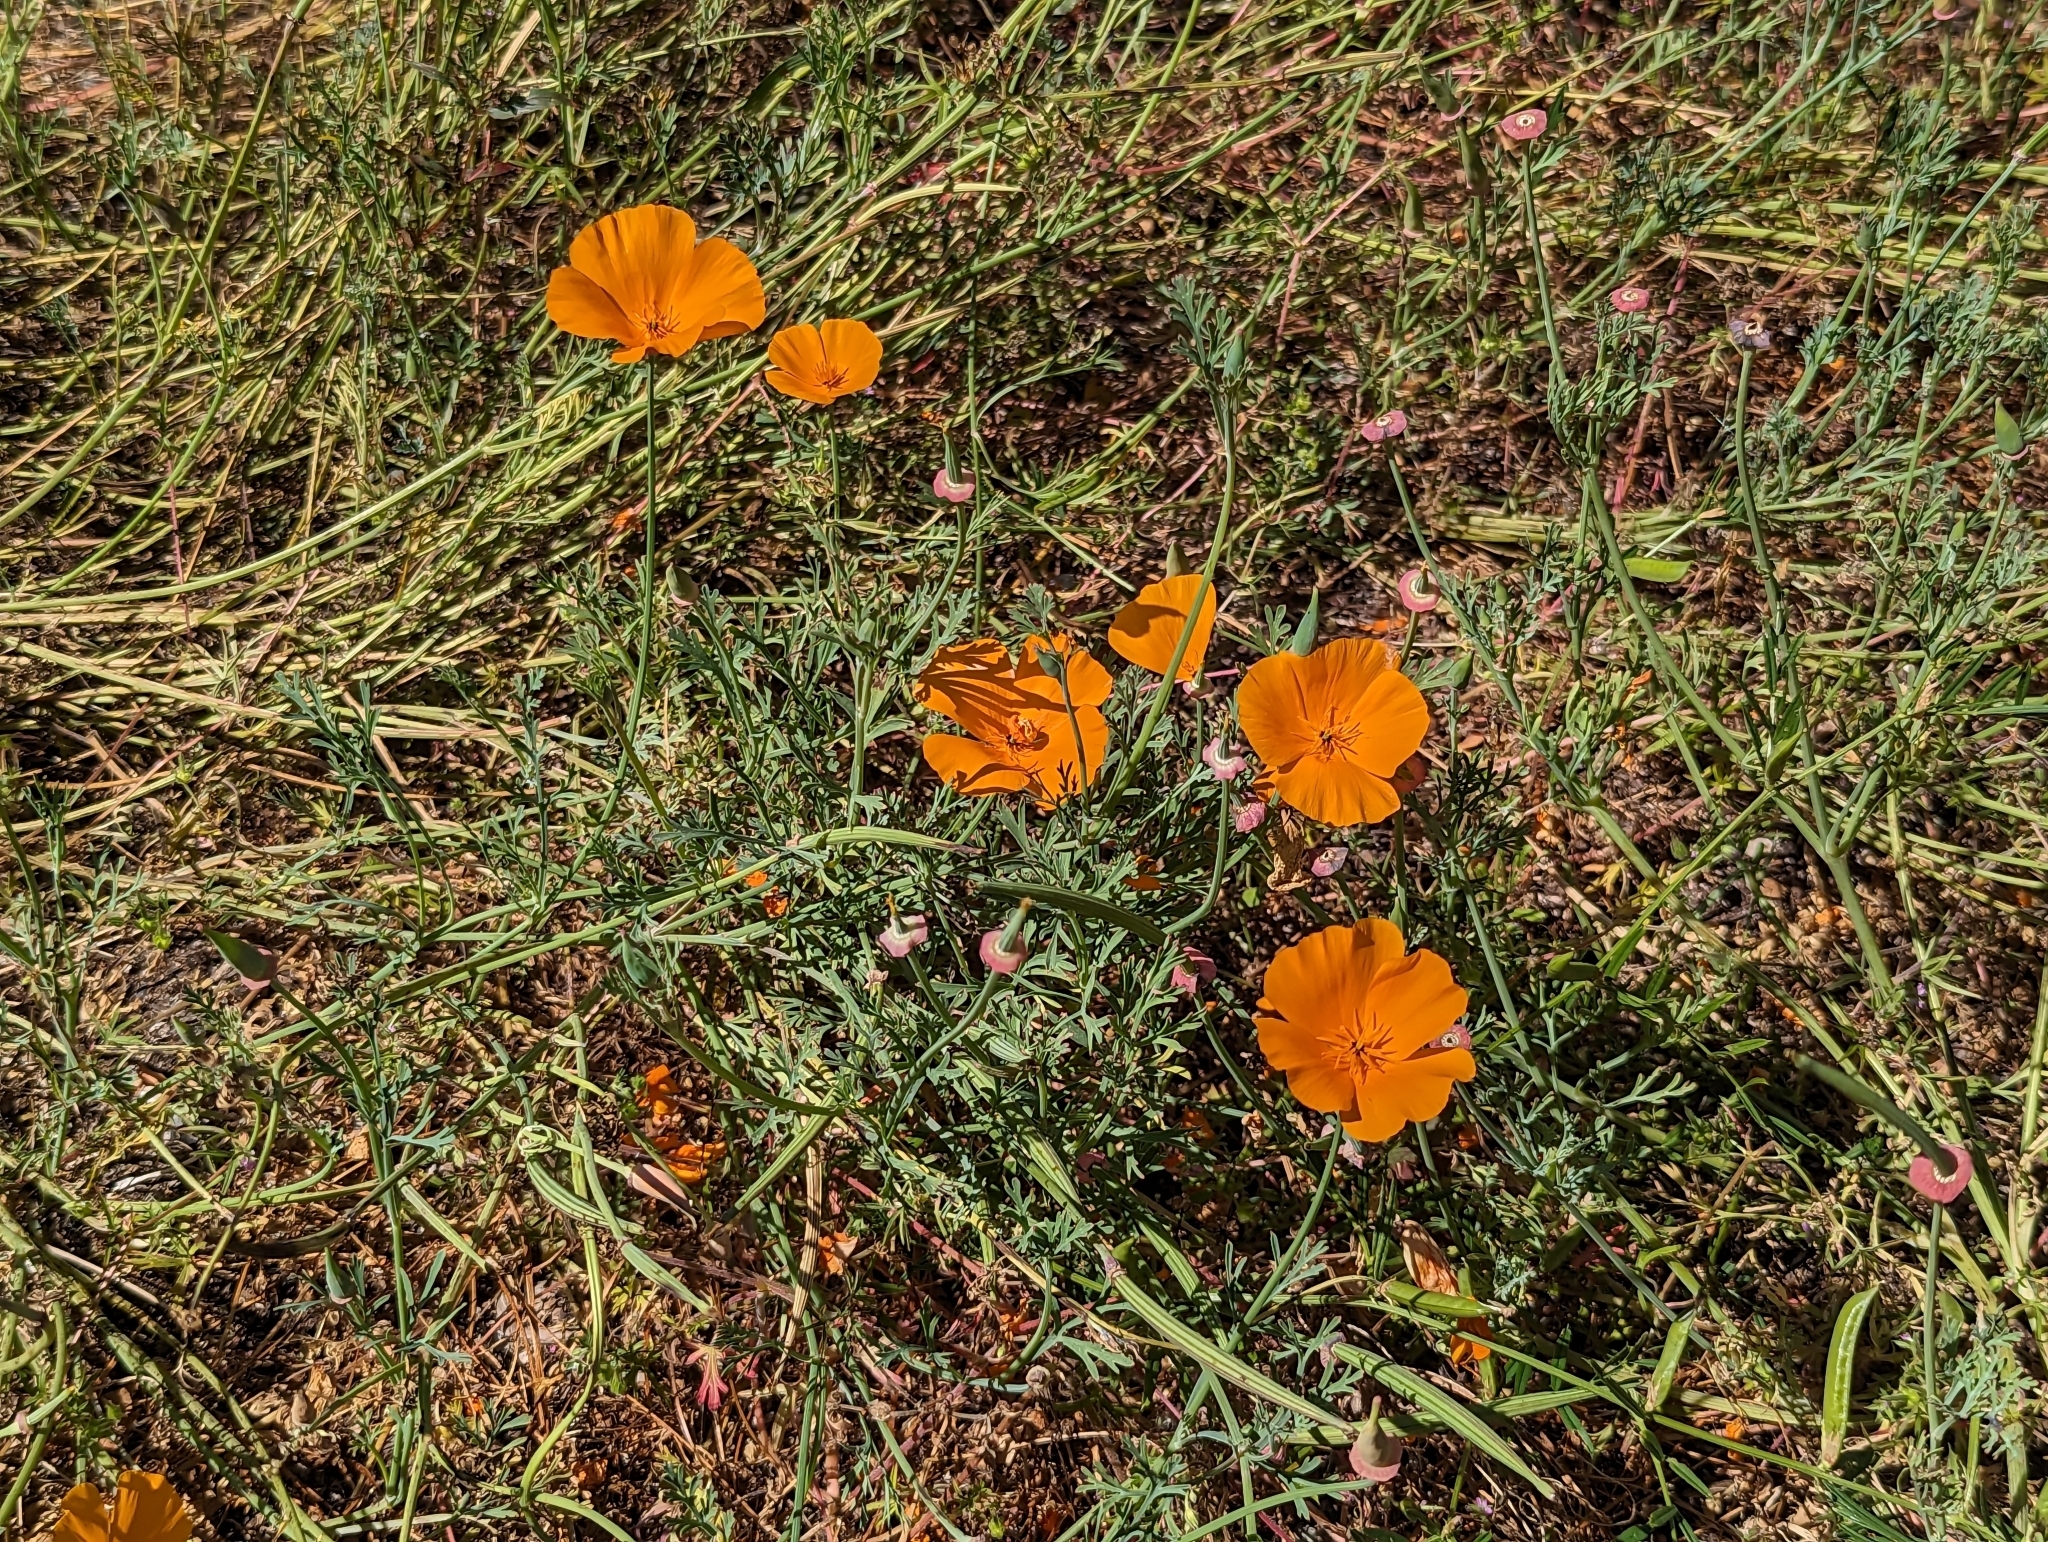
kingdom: Plantae
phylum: Tracheophyta
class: Magnoliopsida
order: Ranunculales
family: Papaveraceae
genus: Eschscholzia
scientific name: Eschscholzia californica
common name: California poppy
